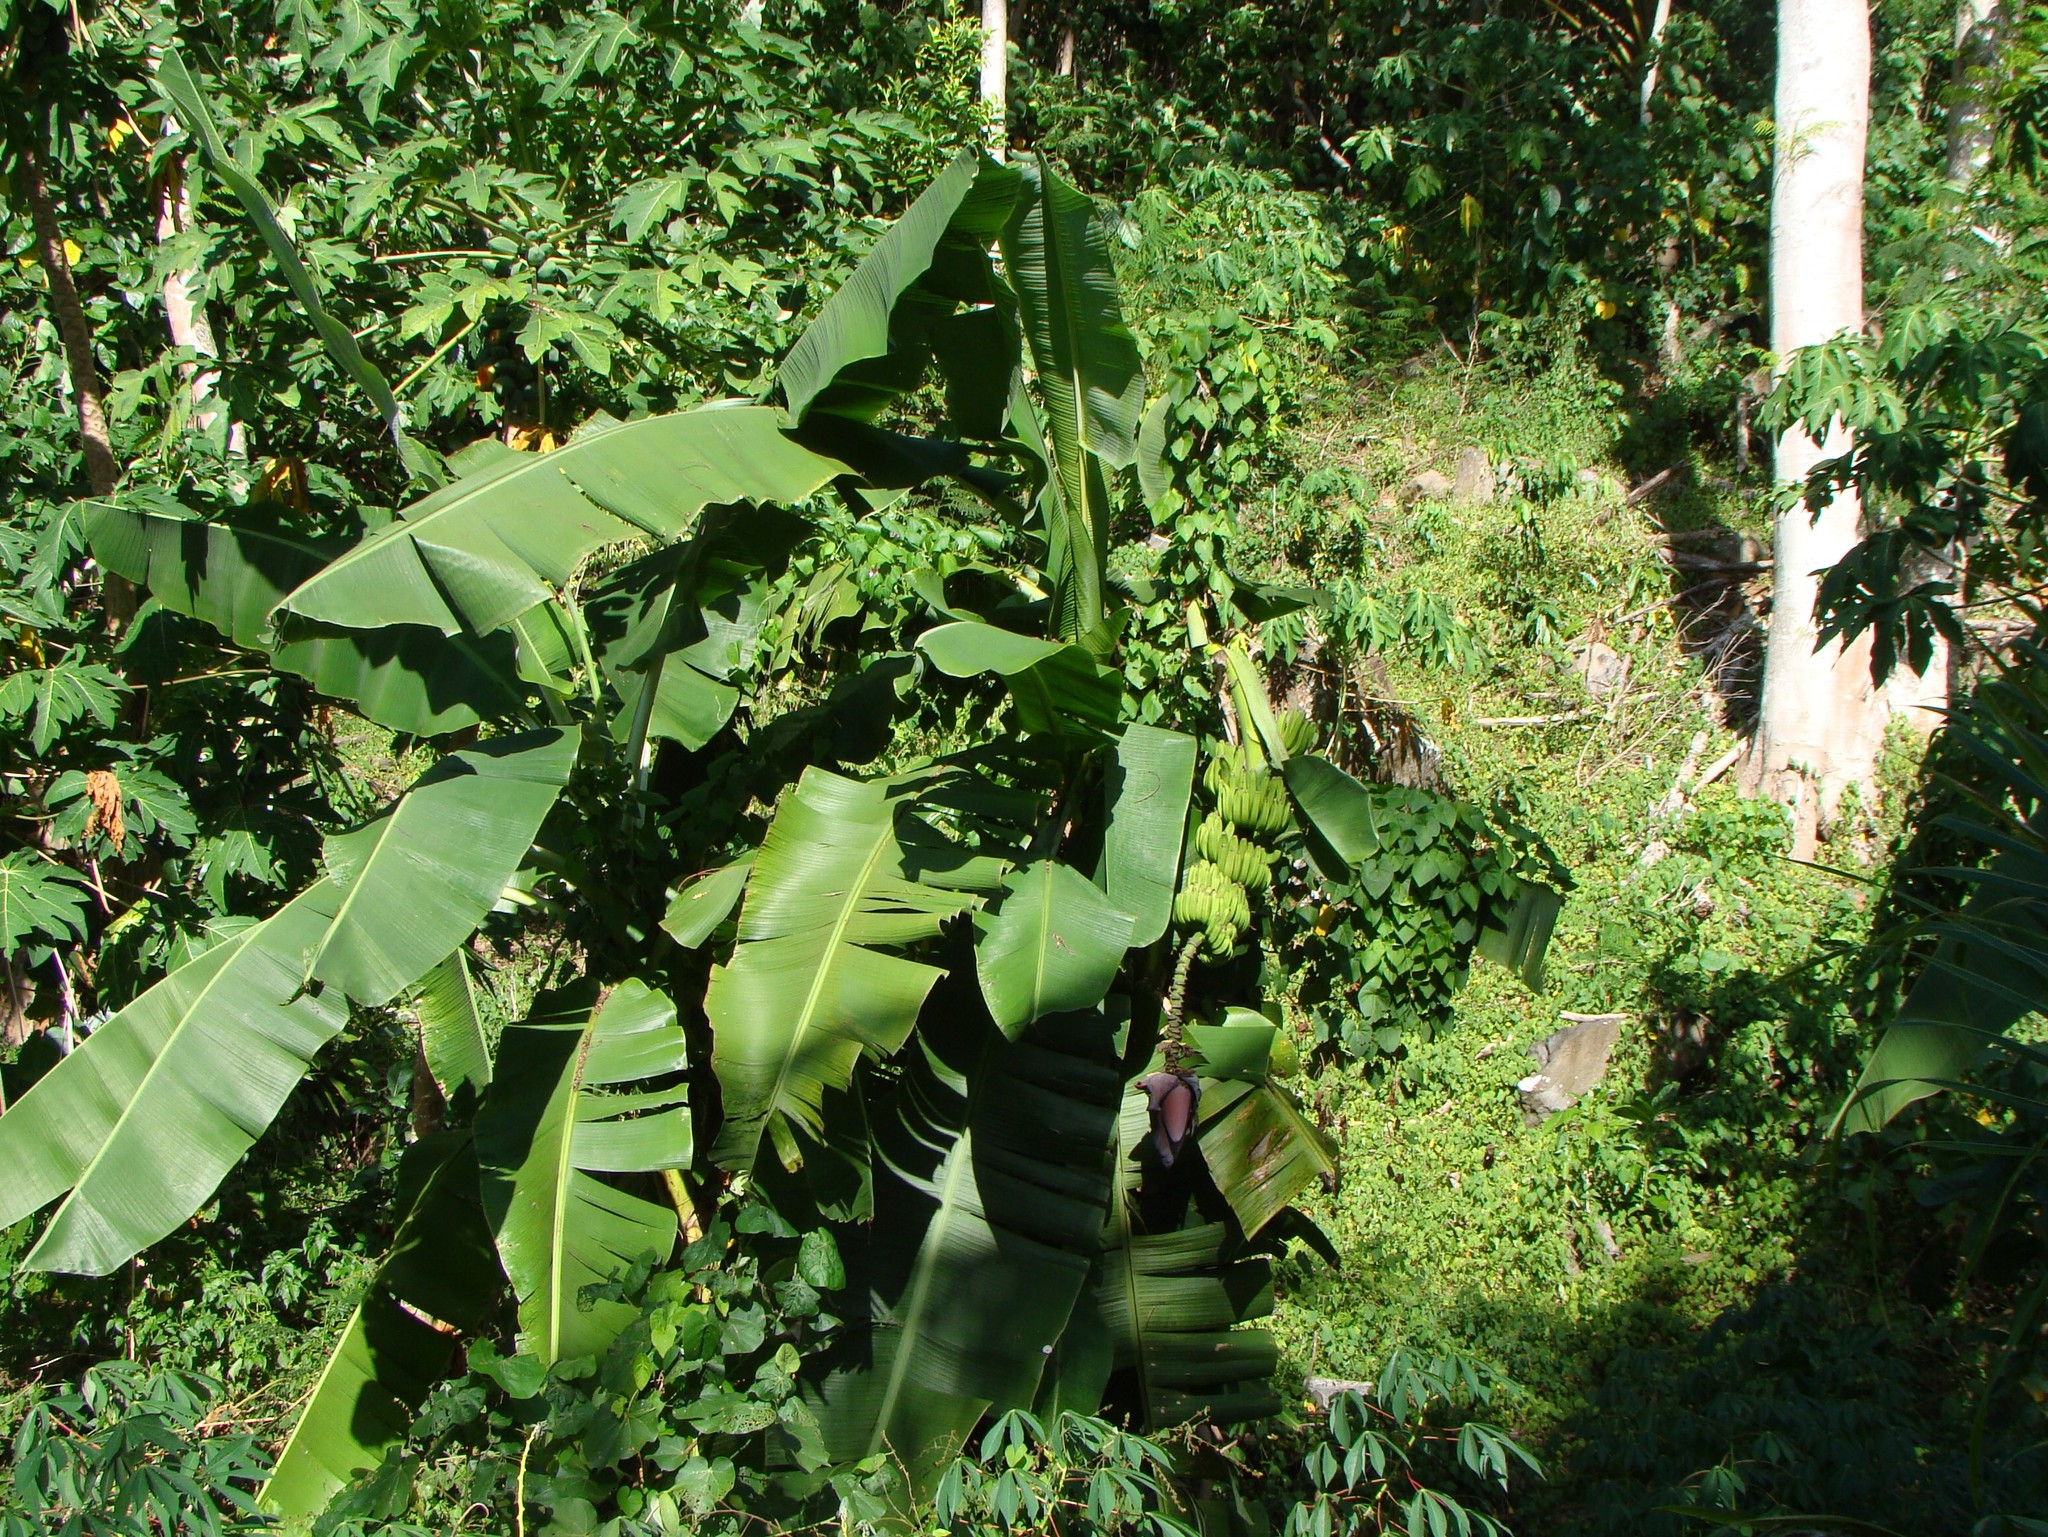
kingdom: Plantae
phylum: Tracheophyta
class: Liliopsida
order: Zingiberales
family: Musaceae
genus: Musa
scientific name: Musa acuminata
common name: Edible banana
